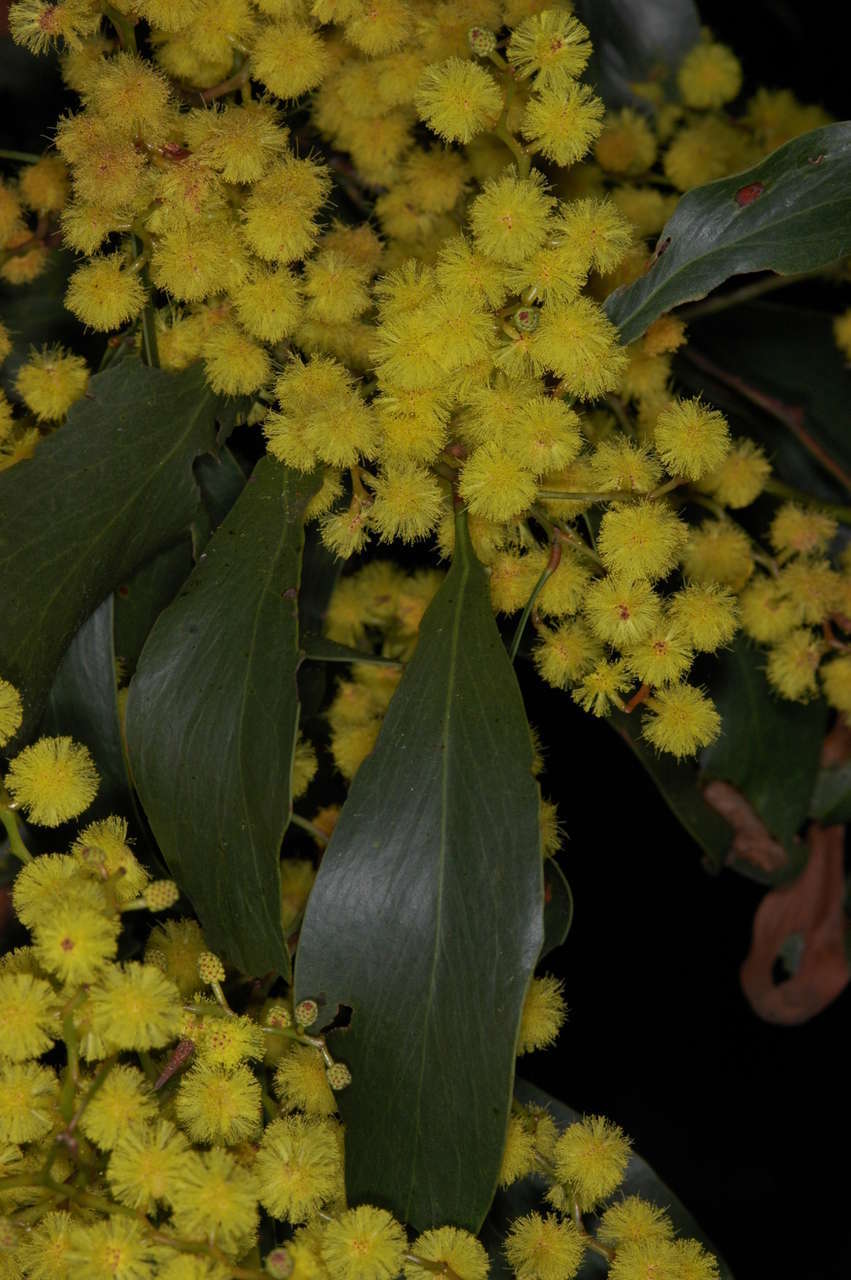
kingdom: Plantae
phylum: Tracheophyta
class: Magnoliopsida
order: Fabales
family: Fabaceae
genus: Acacia
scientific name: Acacia pycnantha
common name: Golden wattle
